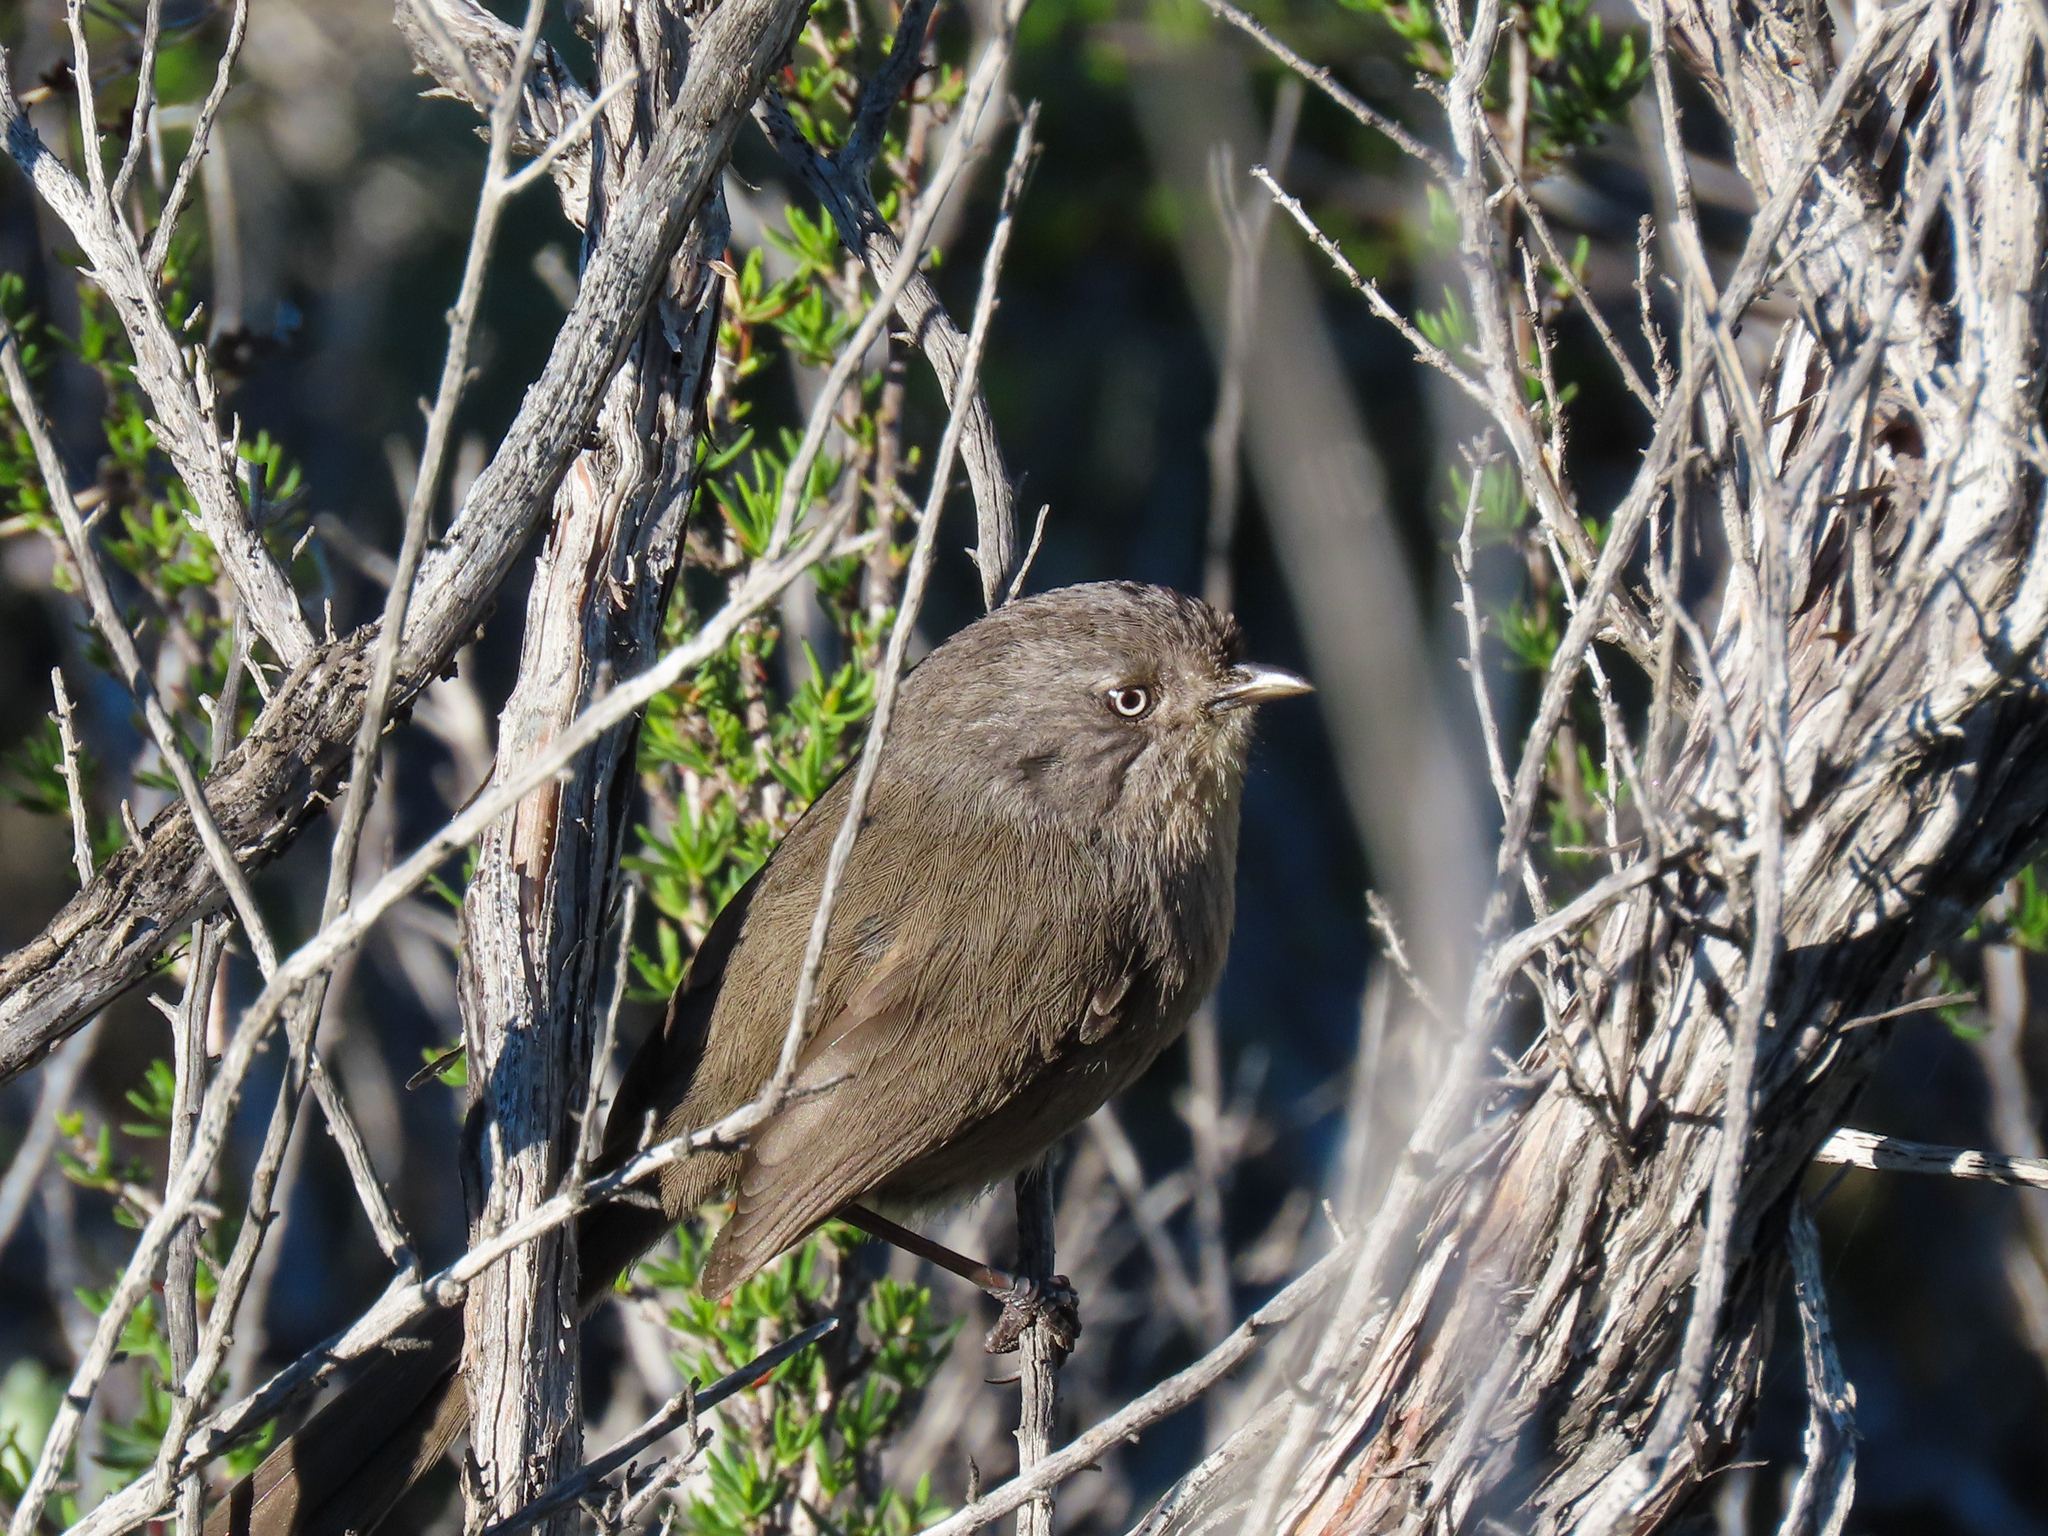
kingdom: Animalia
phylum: Chordata
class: Aves
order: Passeriformes
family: Sylviidae
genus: Chamaea
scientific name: Chamaea fasciata
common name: Wrentit
